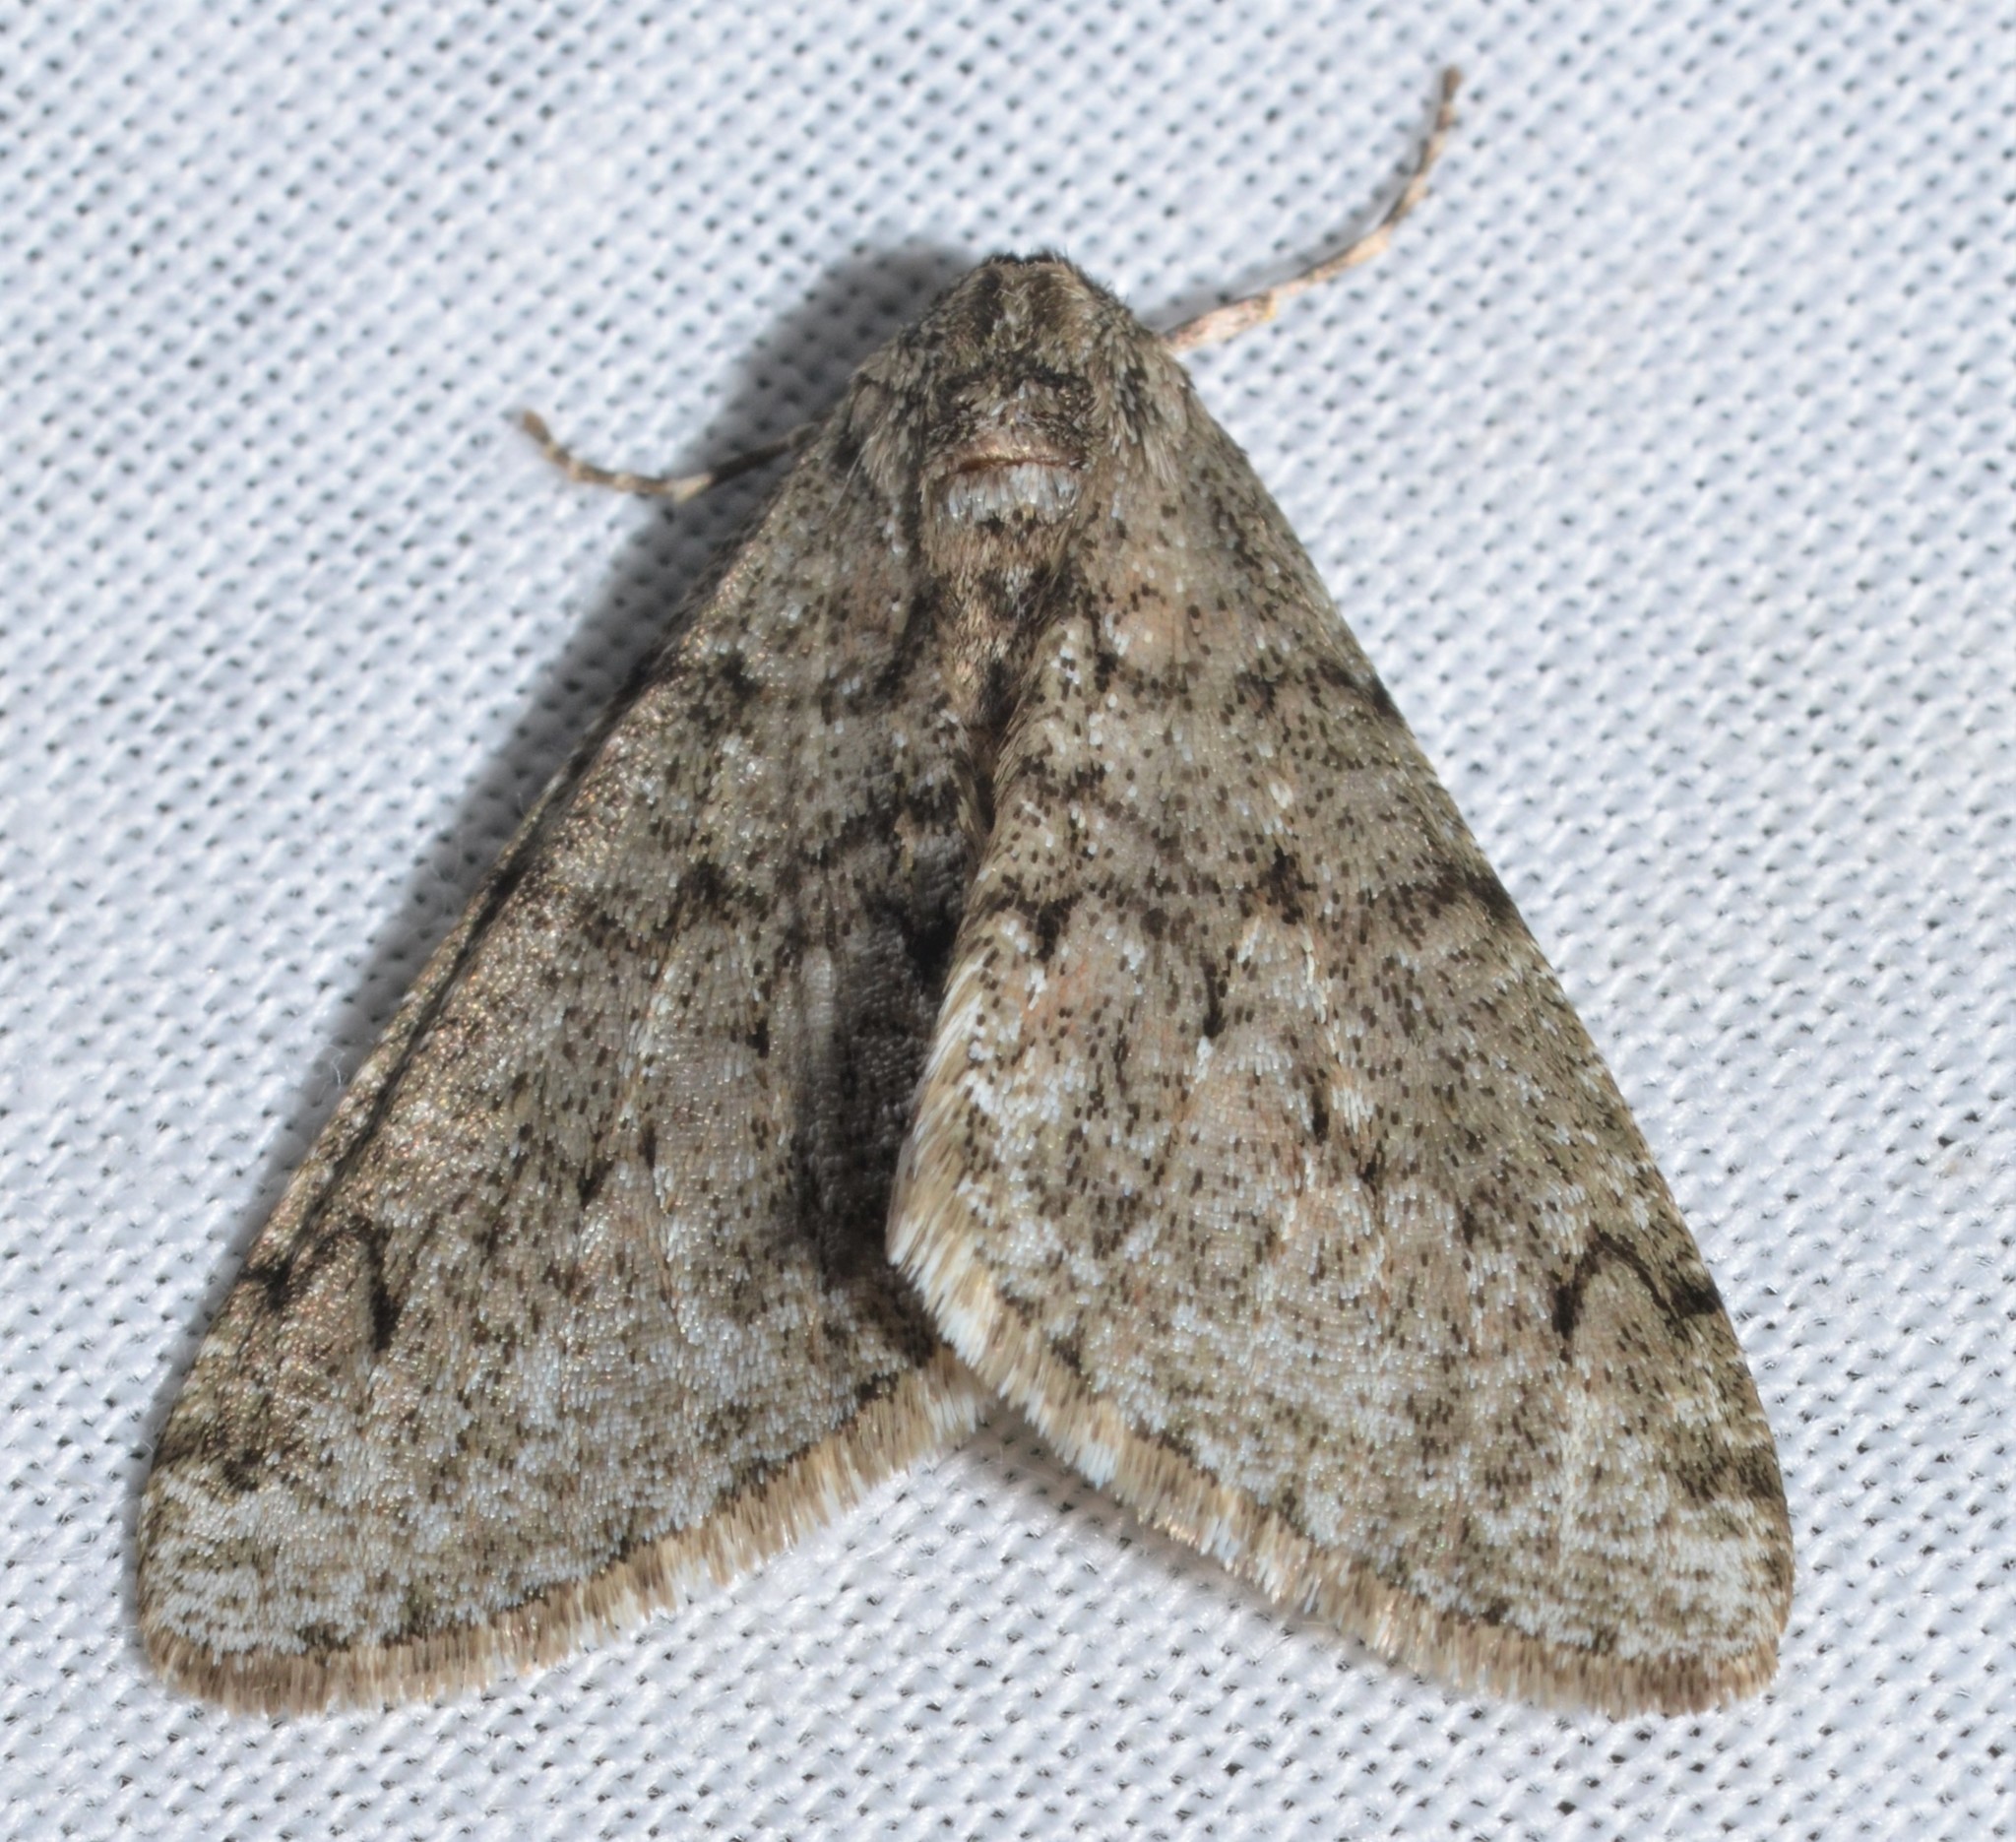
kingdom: Animalia
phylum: Arthropoda
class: Insecta
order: Lepidoptera
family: Geometridae
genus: Phigalia
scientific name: Phigalia denticulata
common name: Toothed phigalia
